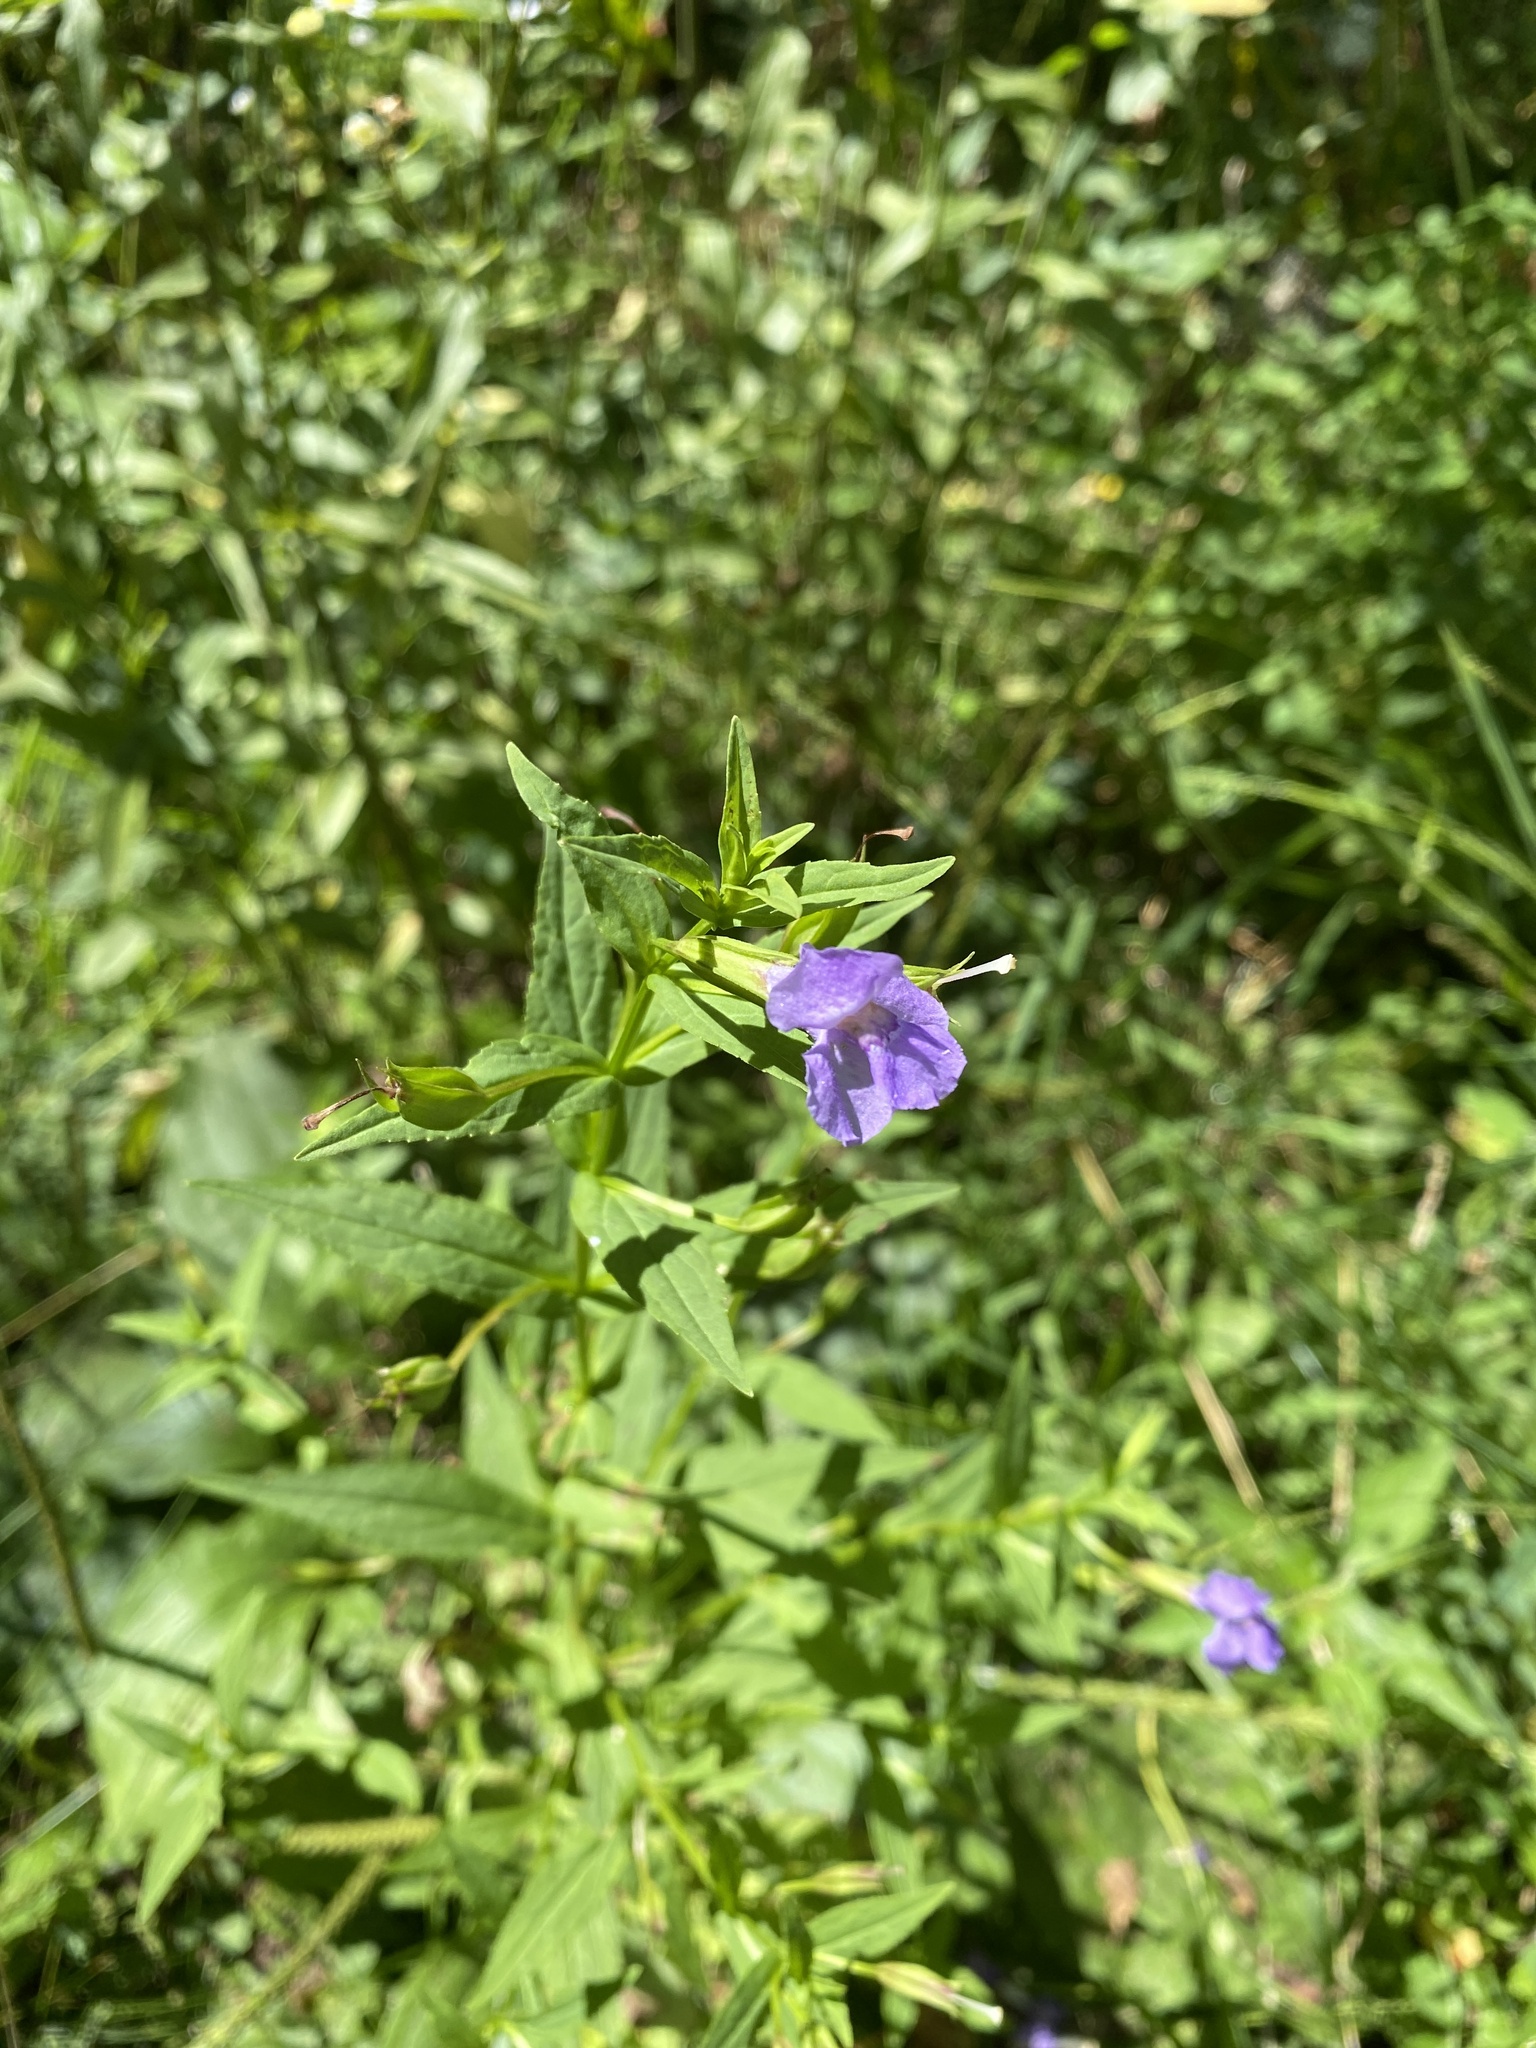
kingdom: Plantae
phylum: Tracheophyta
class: Magnoliopsida
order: Lamiales
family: Phrymaceae
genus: Mimulus
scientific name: Mimulus ringens
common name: Allegheny monkeyflower
